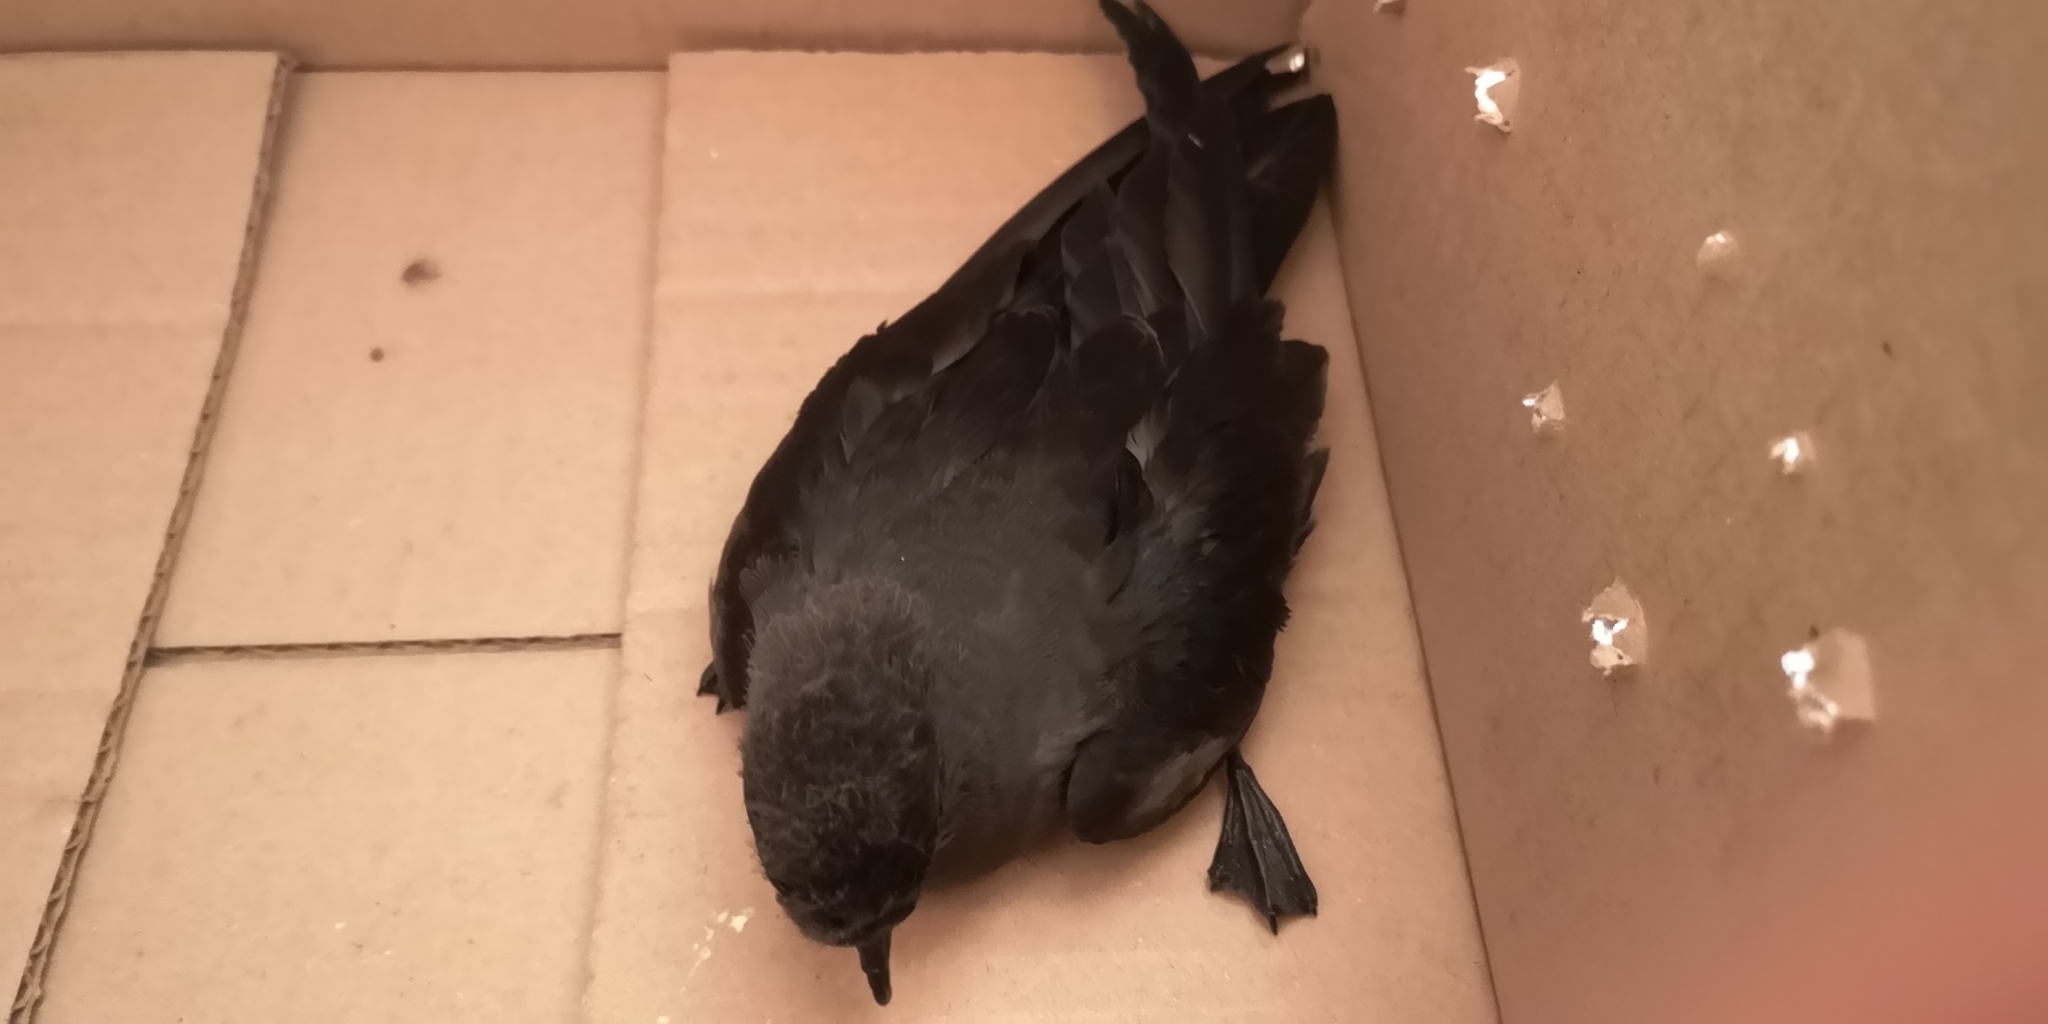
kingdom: Animalia
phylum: Chordata
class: Aves
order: Procellariiformes
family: Hydrobatidae
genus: Oceanodroma
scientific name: Oceanodroma markhami
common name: Markham's storm-petrel
